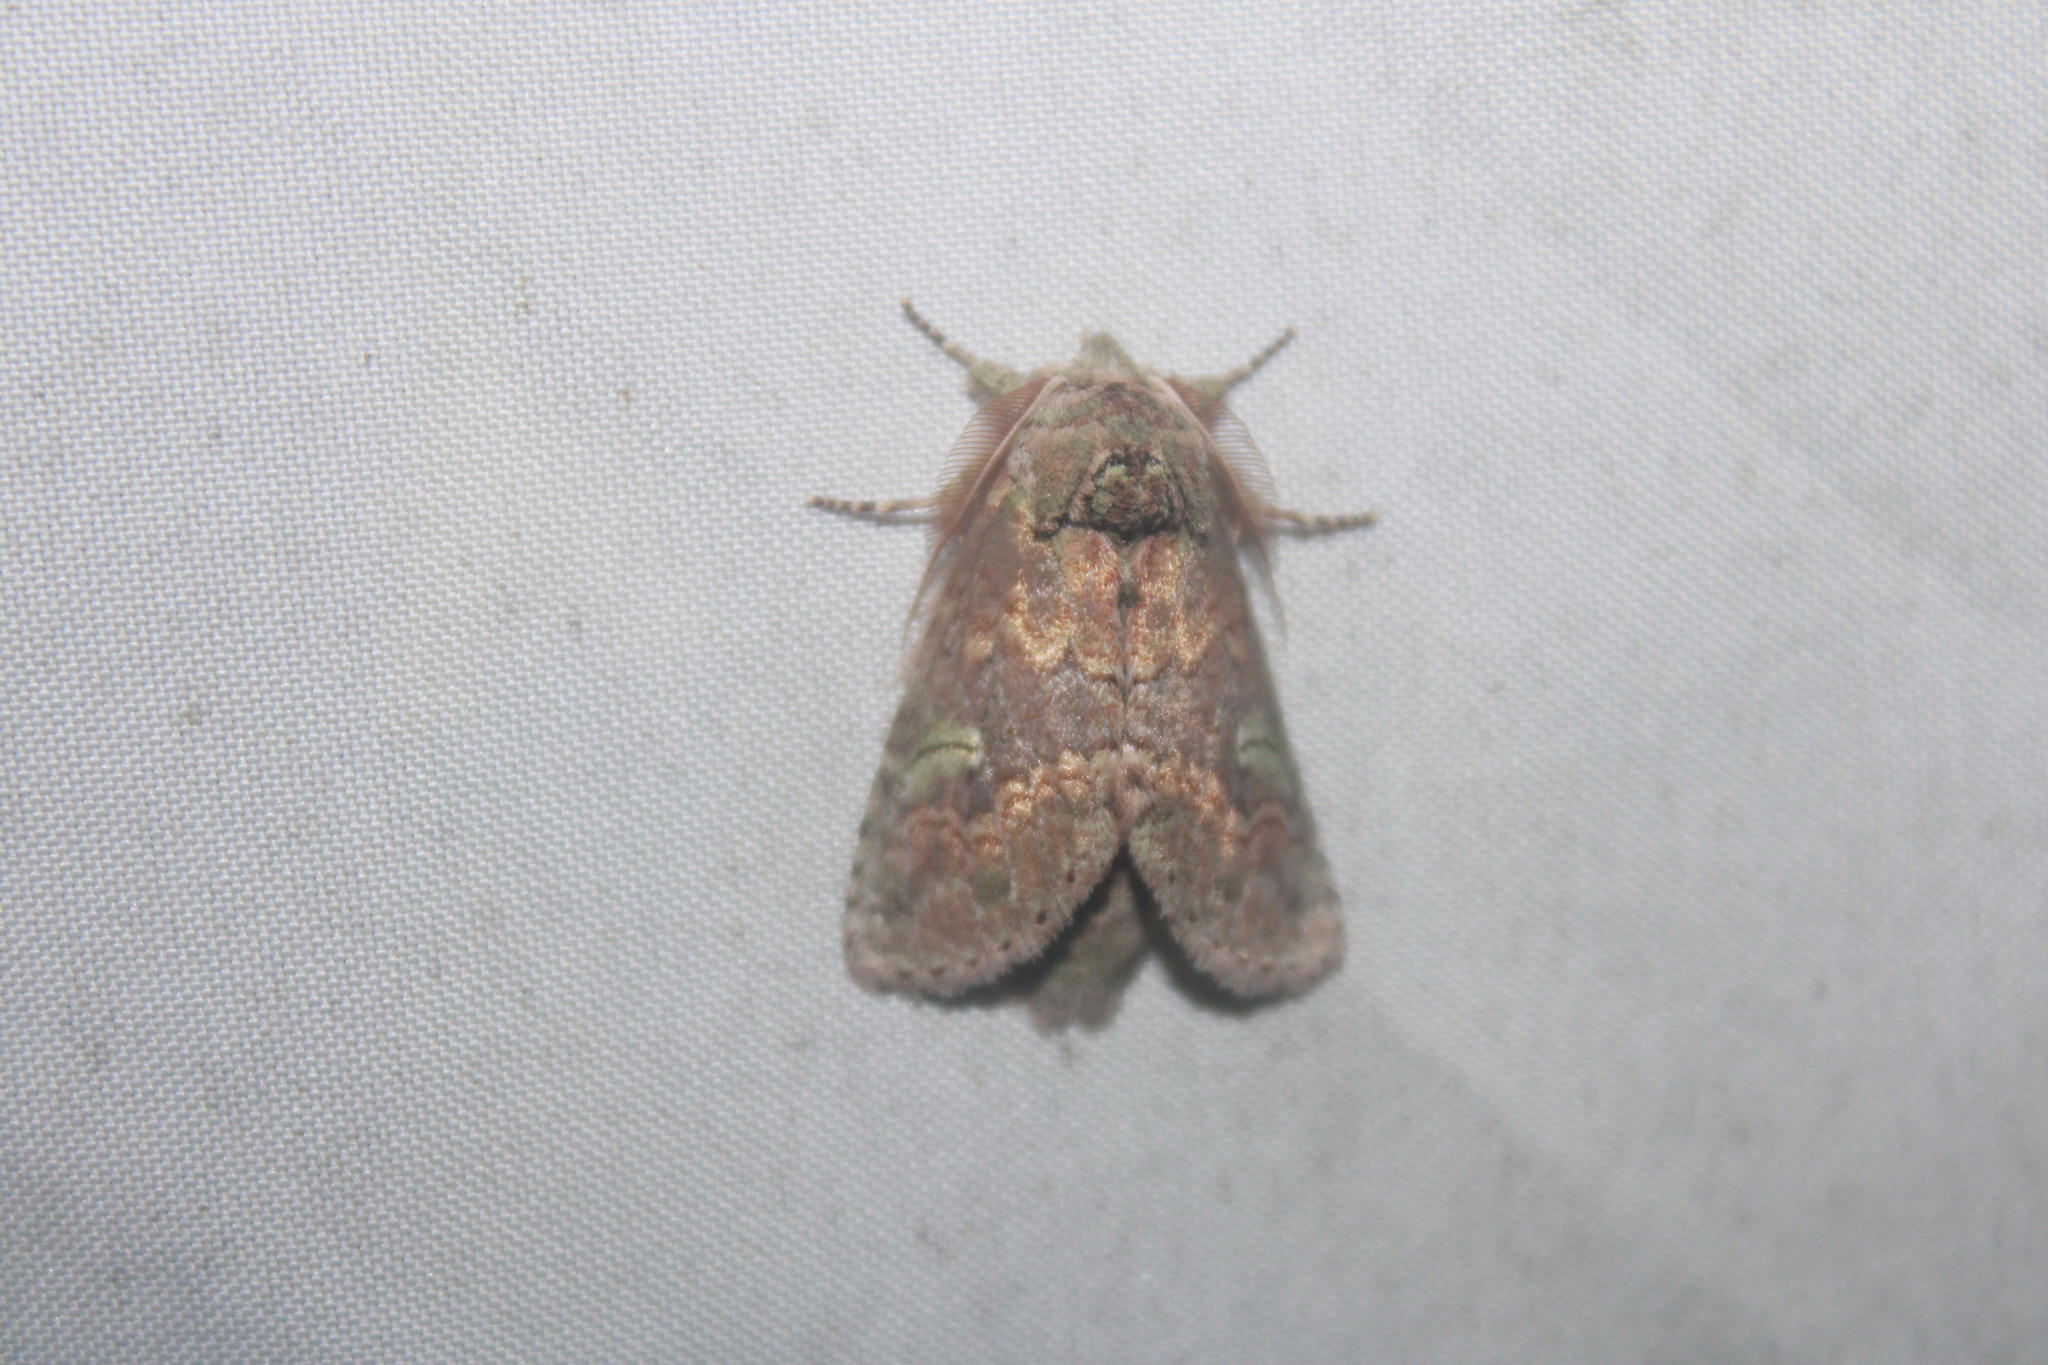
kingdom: Animalia
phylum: Arthropoda
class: Insecta
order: Lepidoptera
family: Notodontidae
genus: Macrurocampa
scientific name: Macrurocampa
